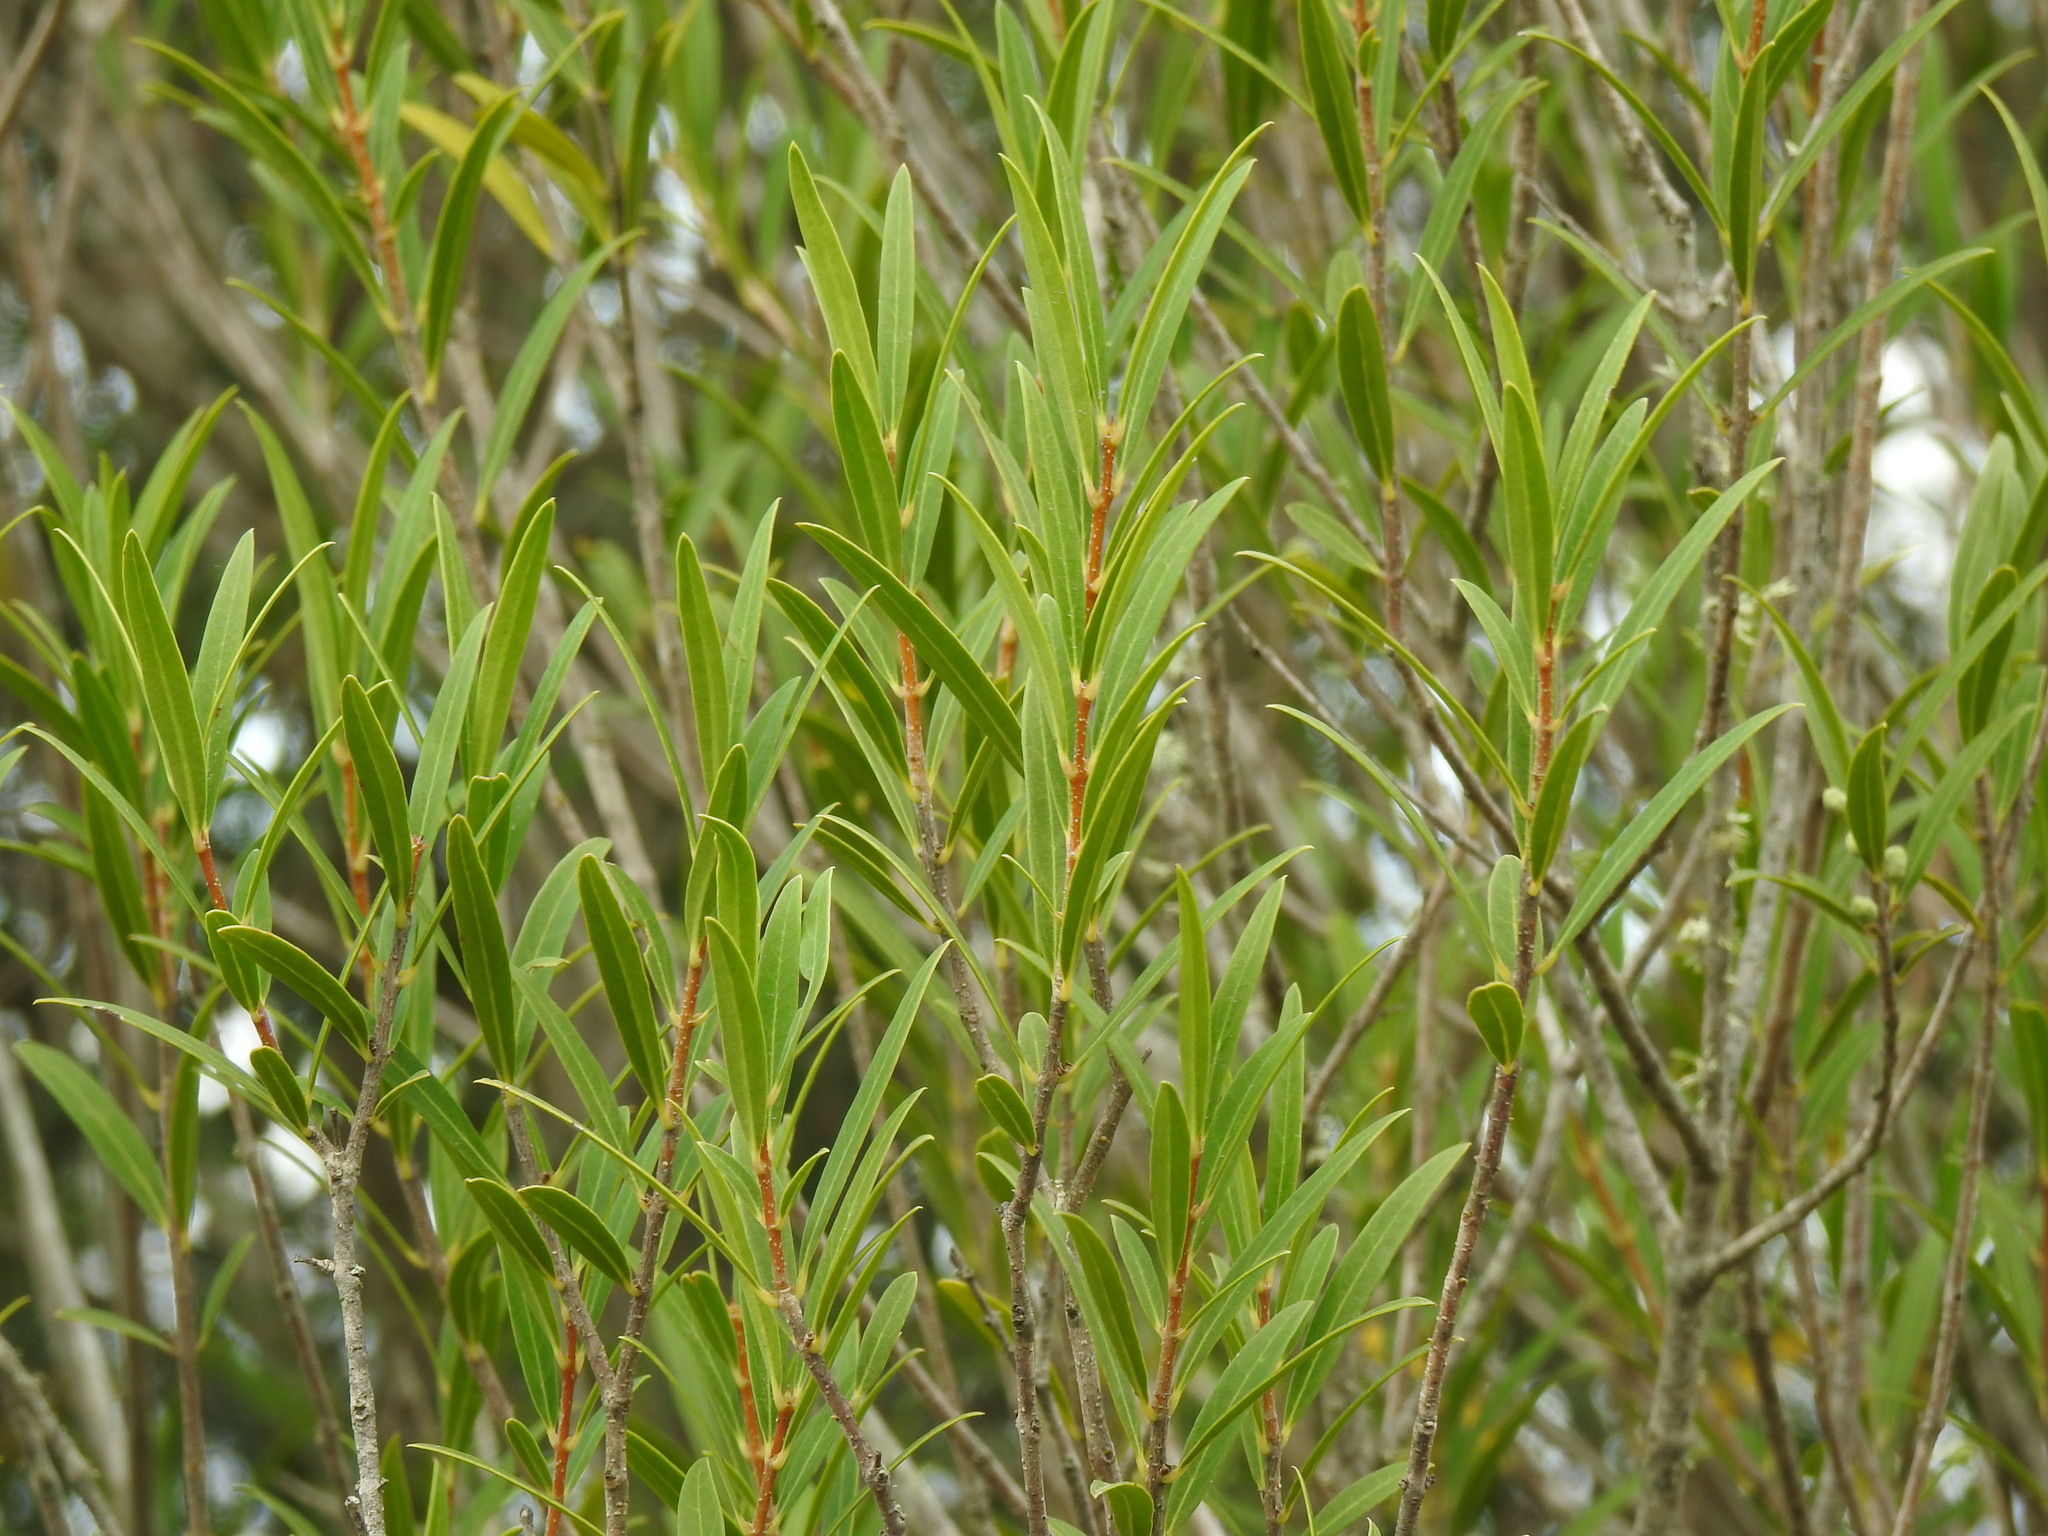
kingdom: Plantae
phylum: Tracheophyta
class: Magnoliopsida
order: Lamiales
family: Oleaceae
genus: Phillyrea
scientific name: Phillyrea angustifolia
